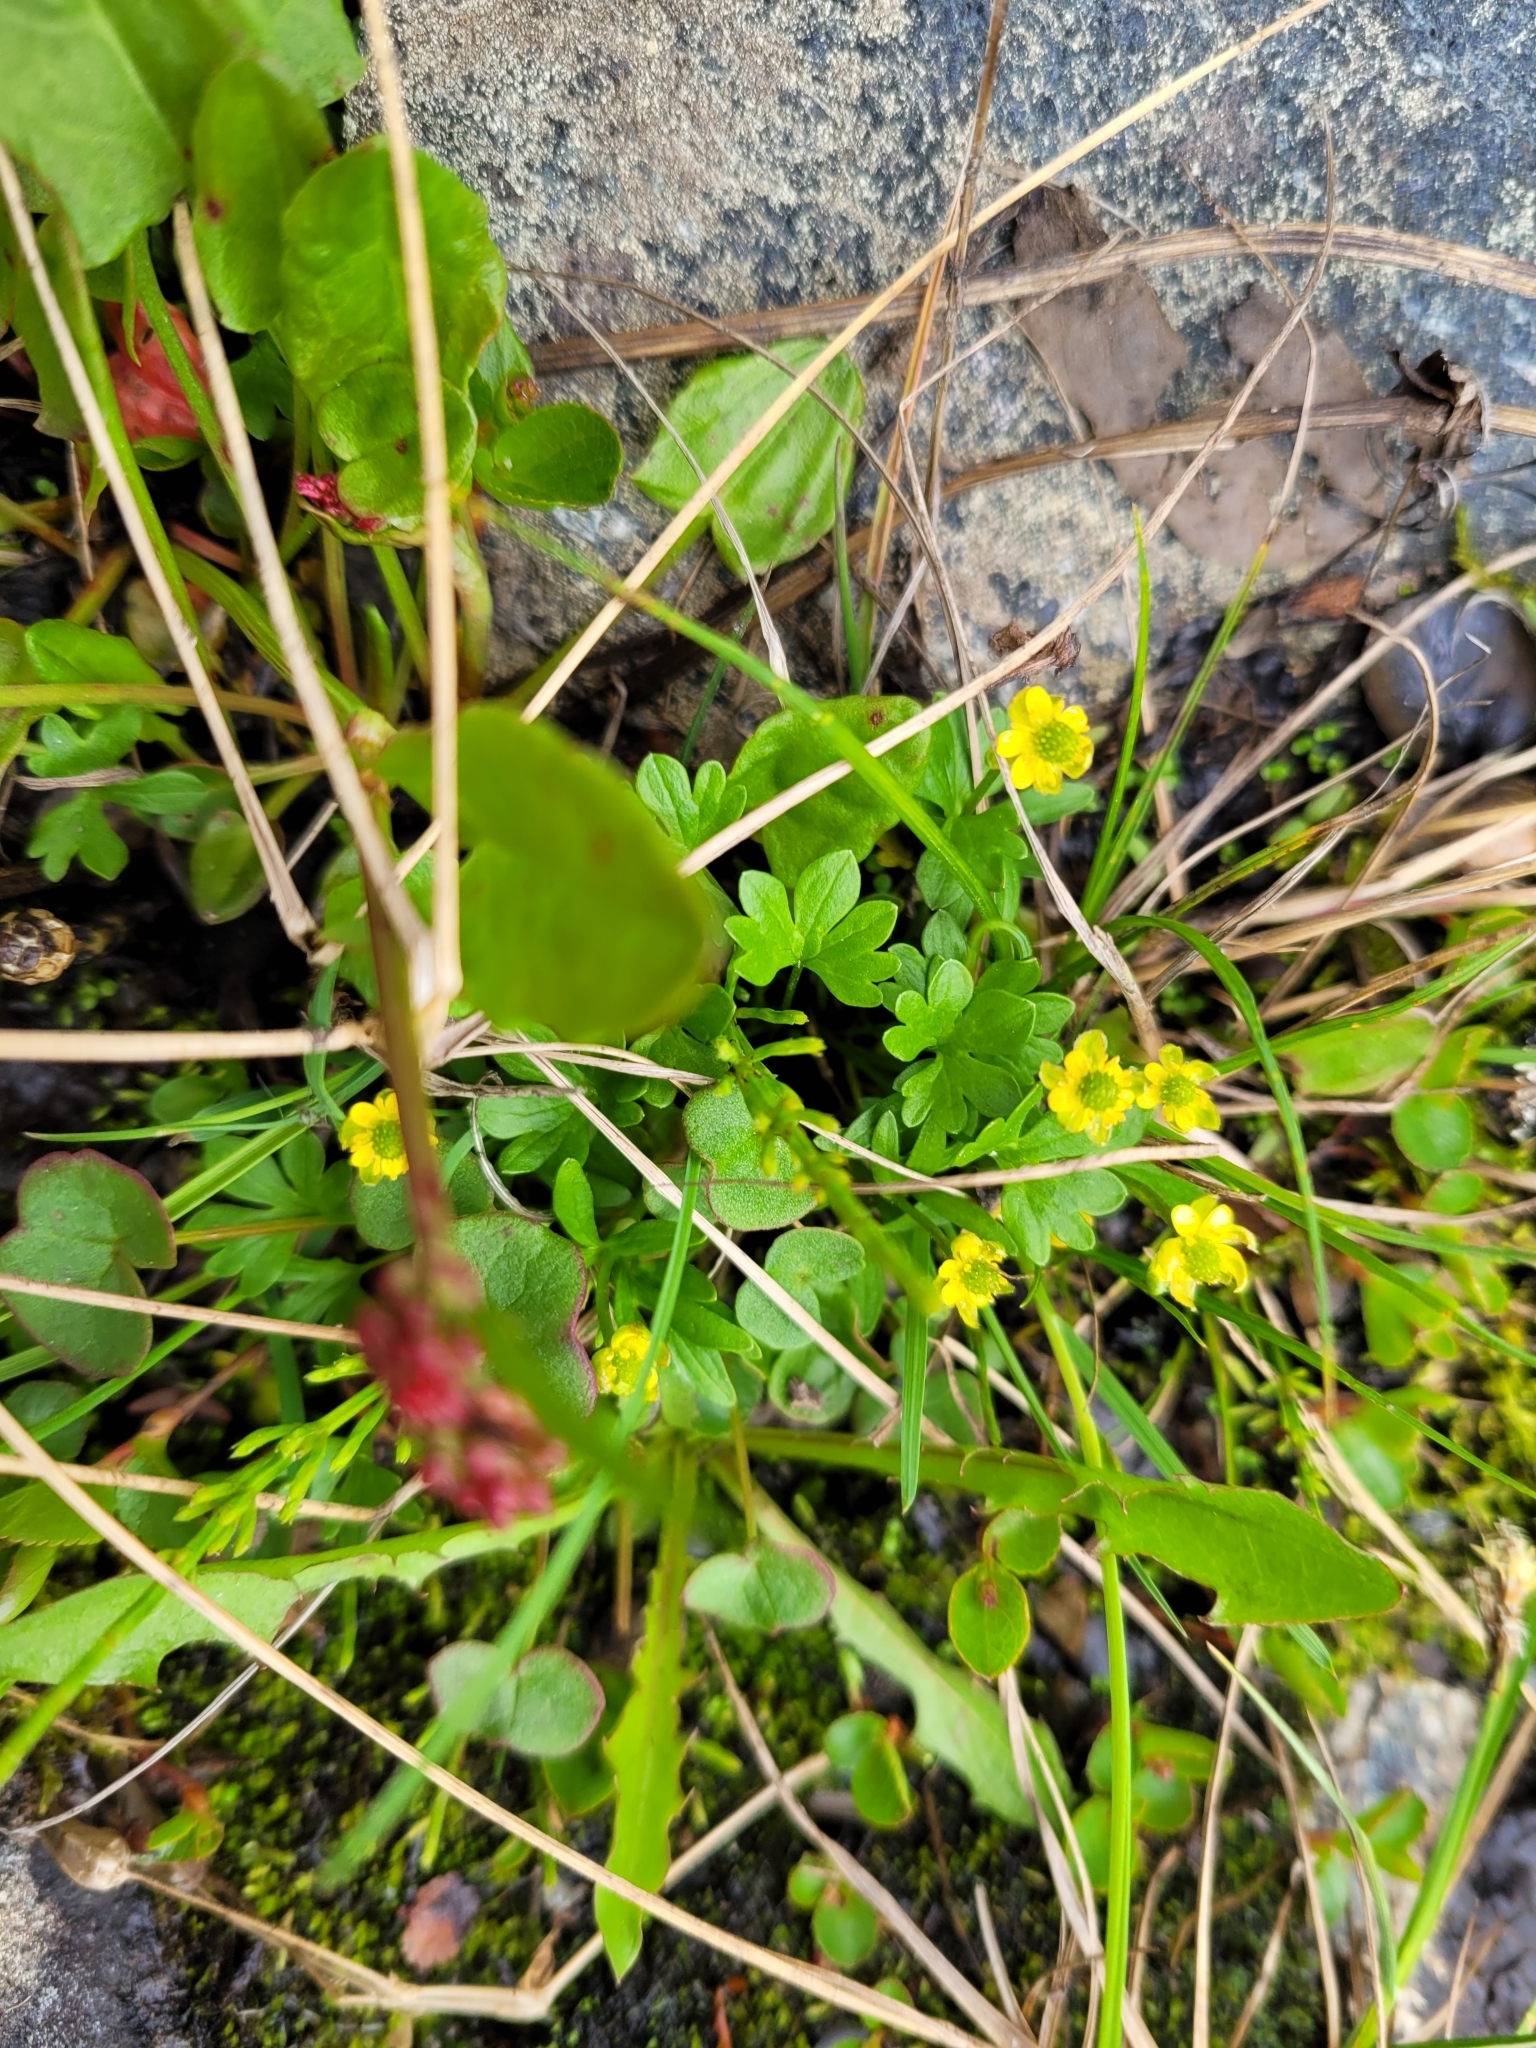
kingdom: Plantae
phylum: Tracheophyta
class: Magnoliopsida
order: Ranunculales
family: Ranunculaceae
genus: Ranunculus
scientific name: Ranunculus pygmaeus
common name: Dwarf buttercup
